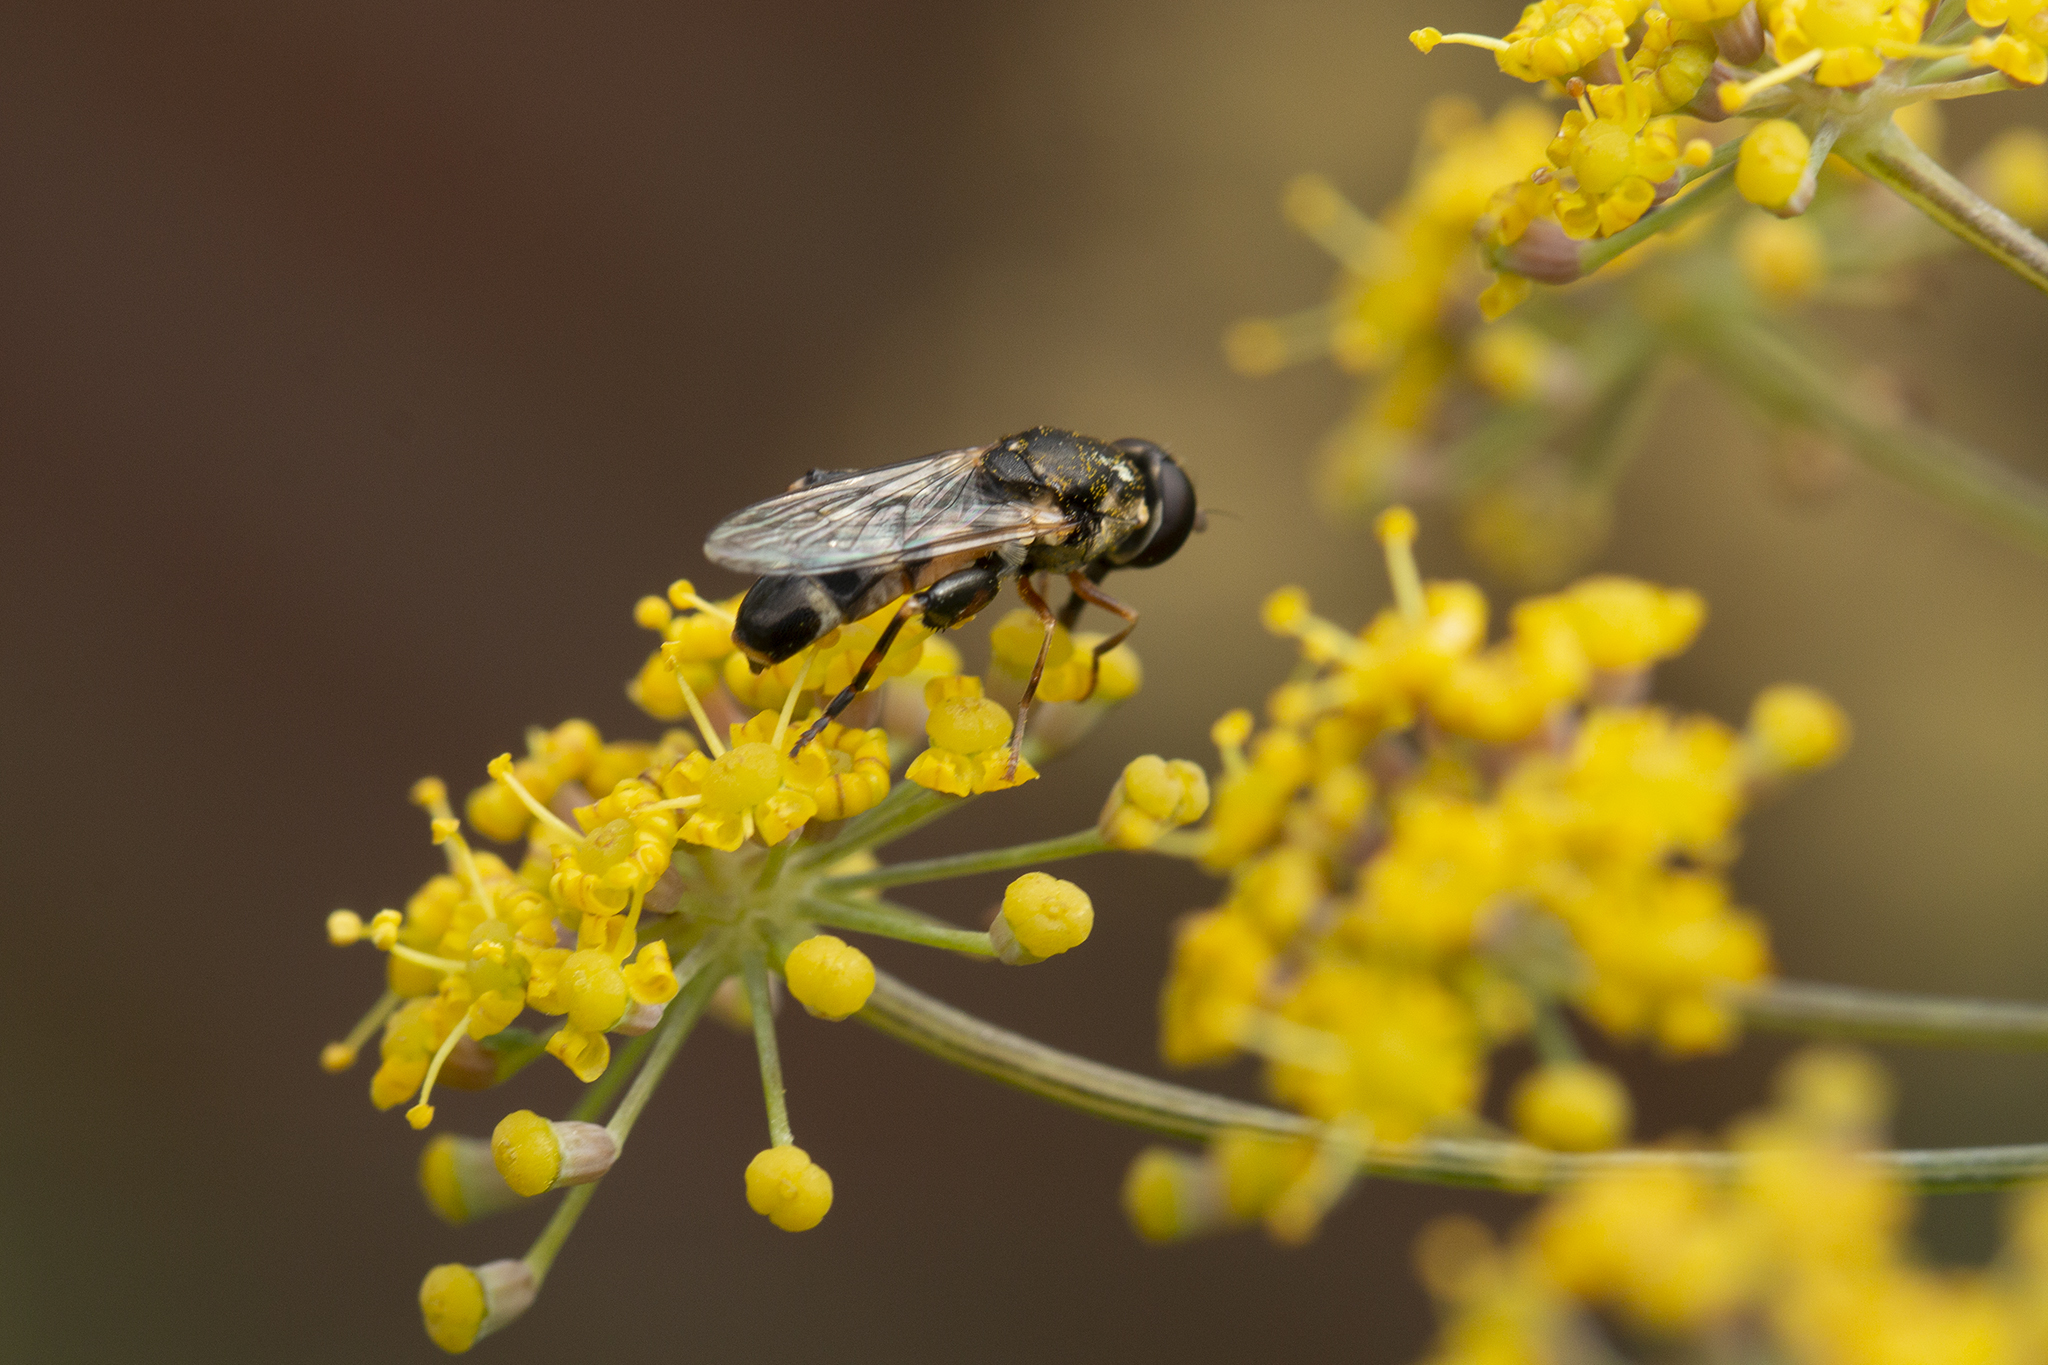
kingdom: Animalia
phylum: Arthropoda
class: Insecta
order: Diptera
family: Syrphidae
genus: Syritta
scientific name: Syritta pipiens
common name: Hover fly
